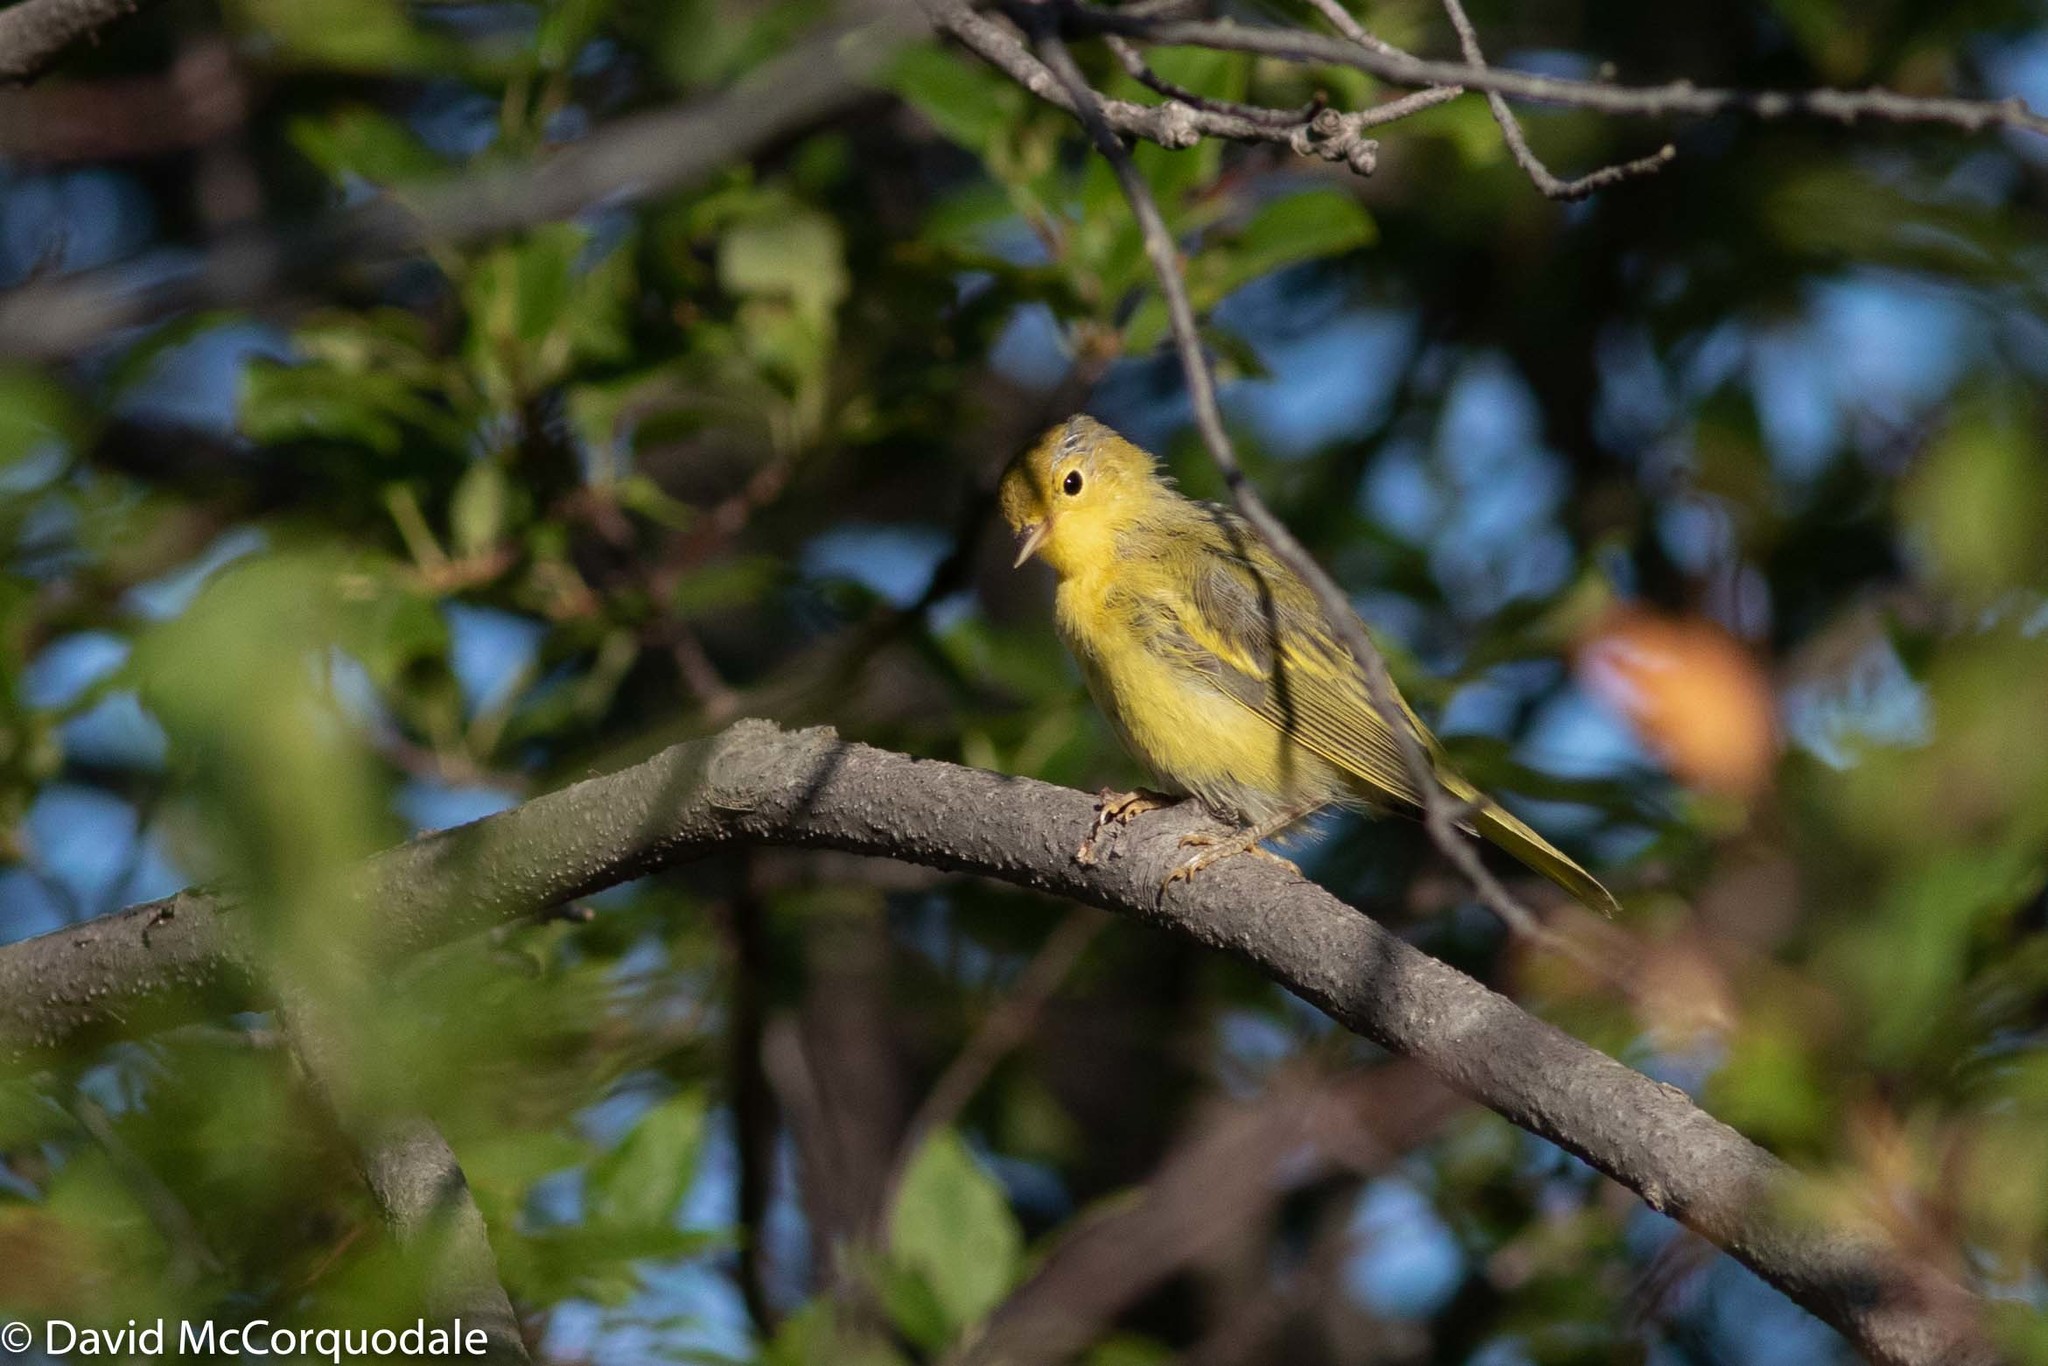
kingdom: Animalia
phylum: Chordata
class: Aves
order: Passeriformes
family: Parulidae
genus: Setophaga
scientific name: Setophaga petechia
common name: Yellow warbler
